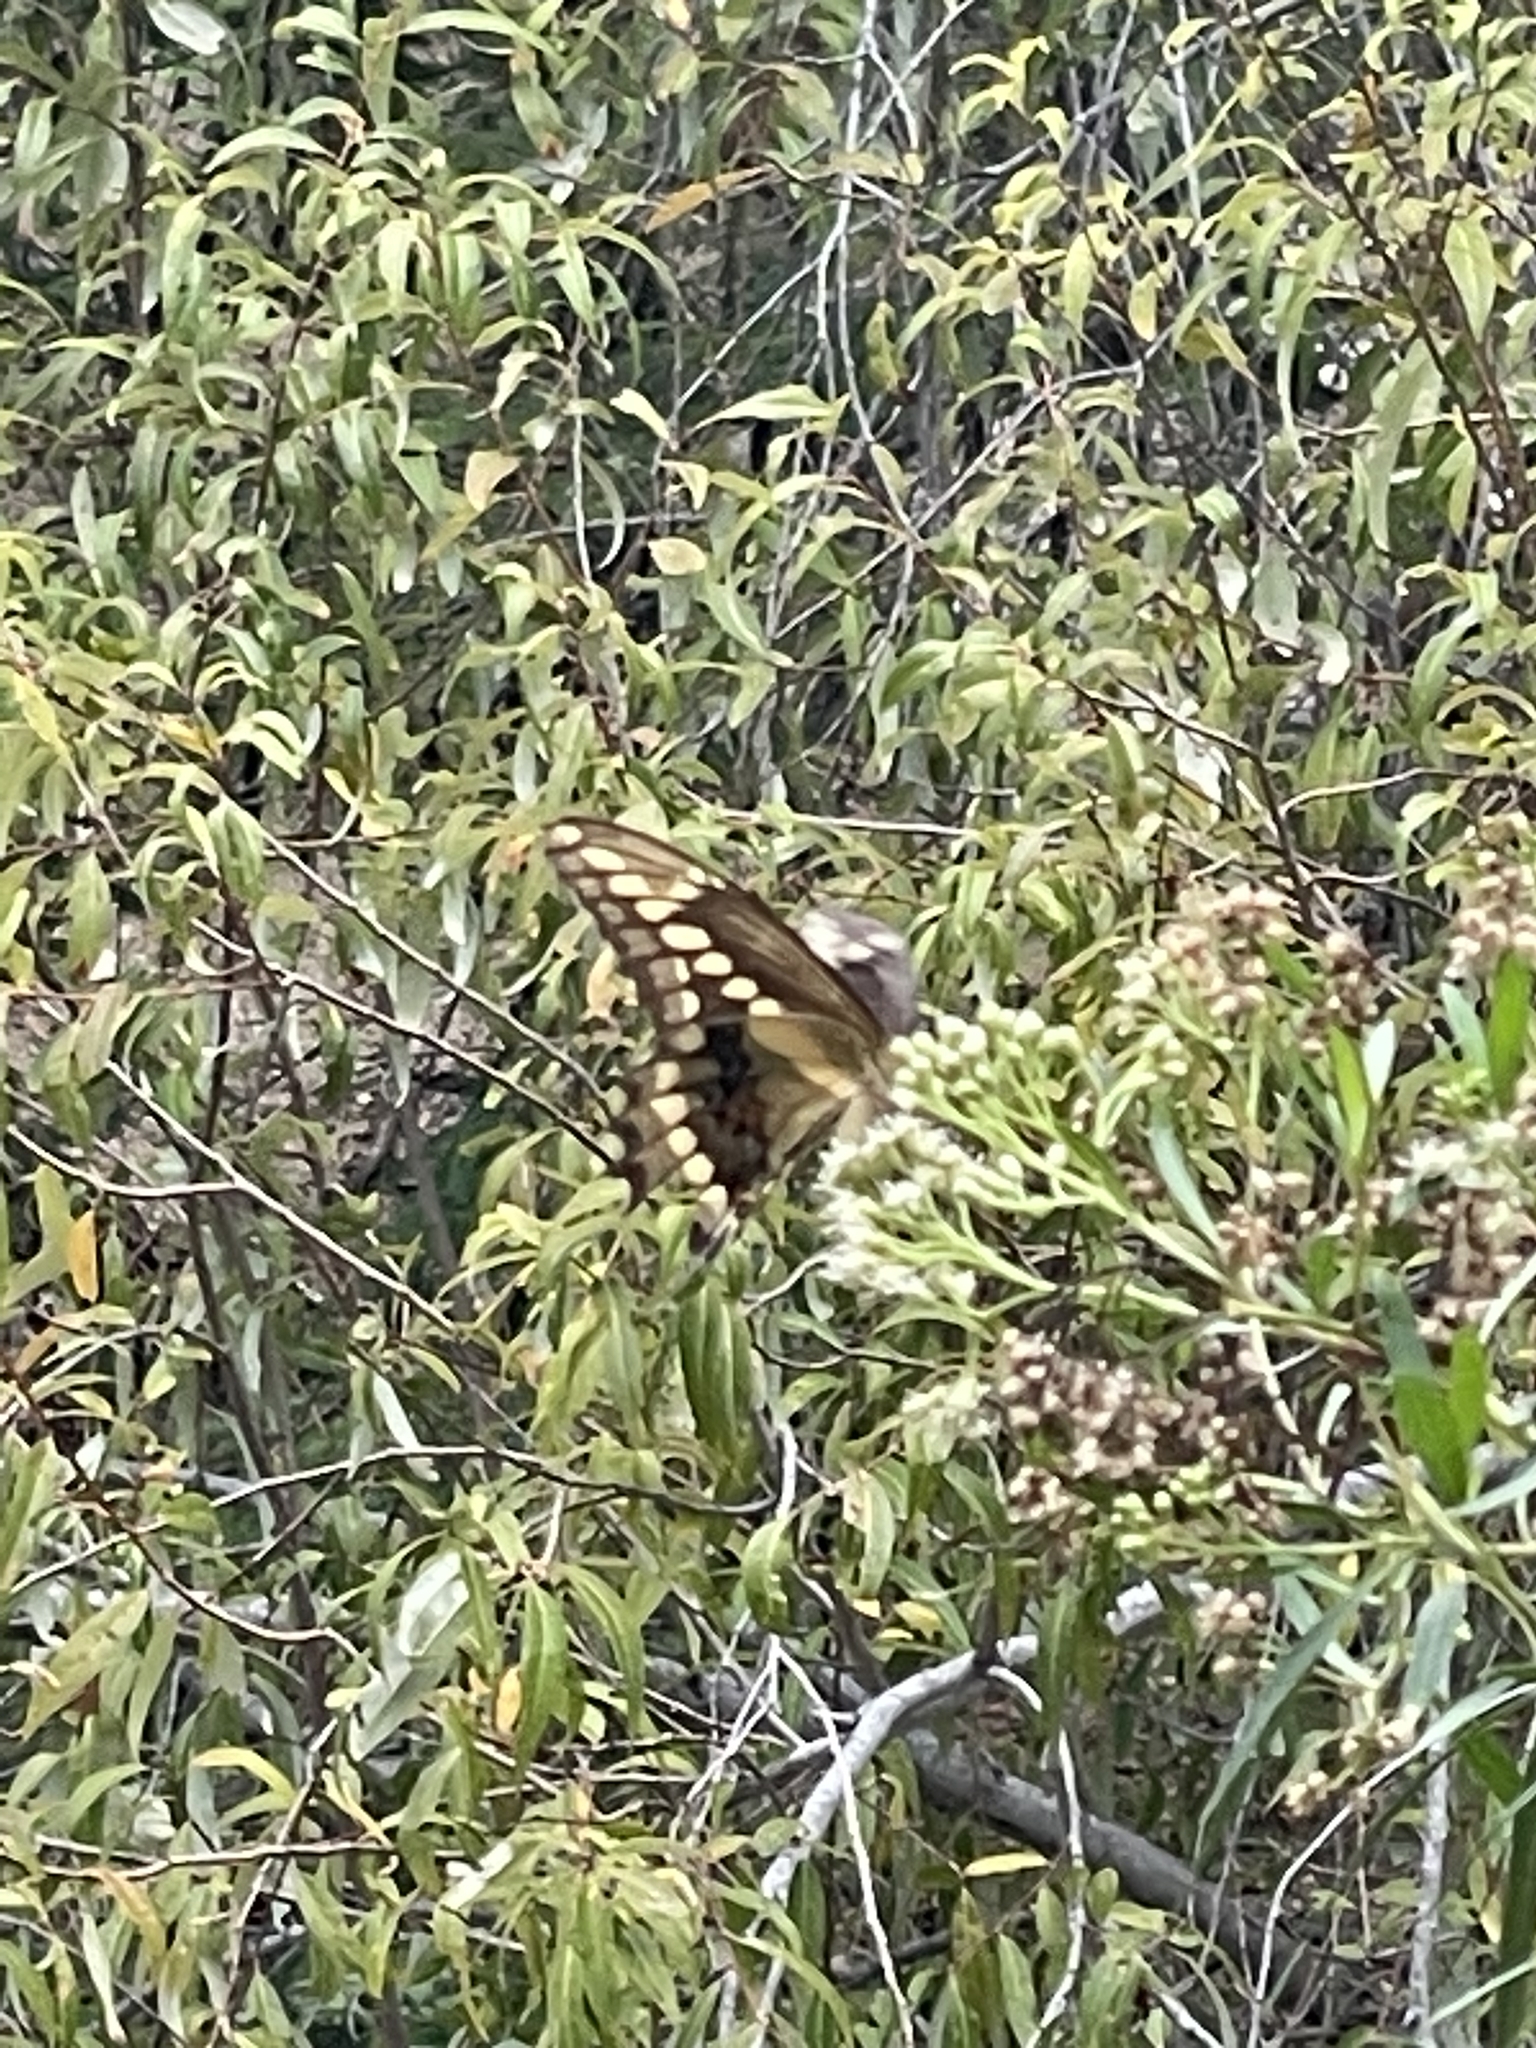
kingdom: Animalia
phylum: Arthropoda
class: Insecta
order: Lepidoptera
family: Papilionidae
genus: Papilio
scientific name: Papilio rumiko
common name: Western giant swallowtail
